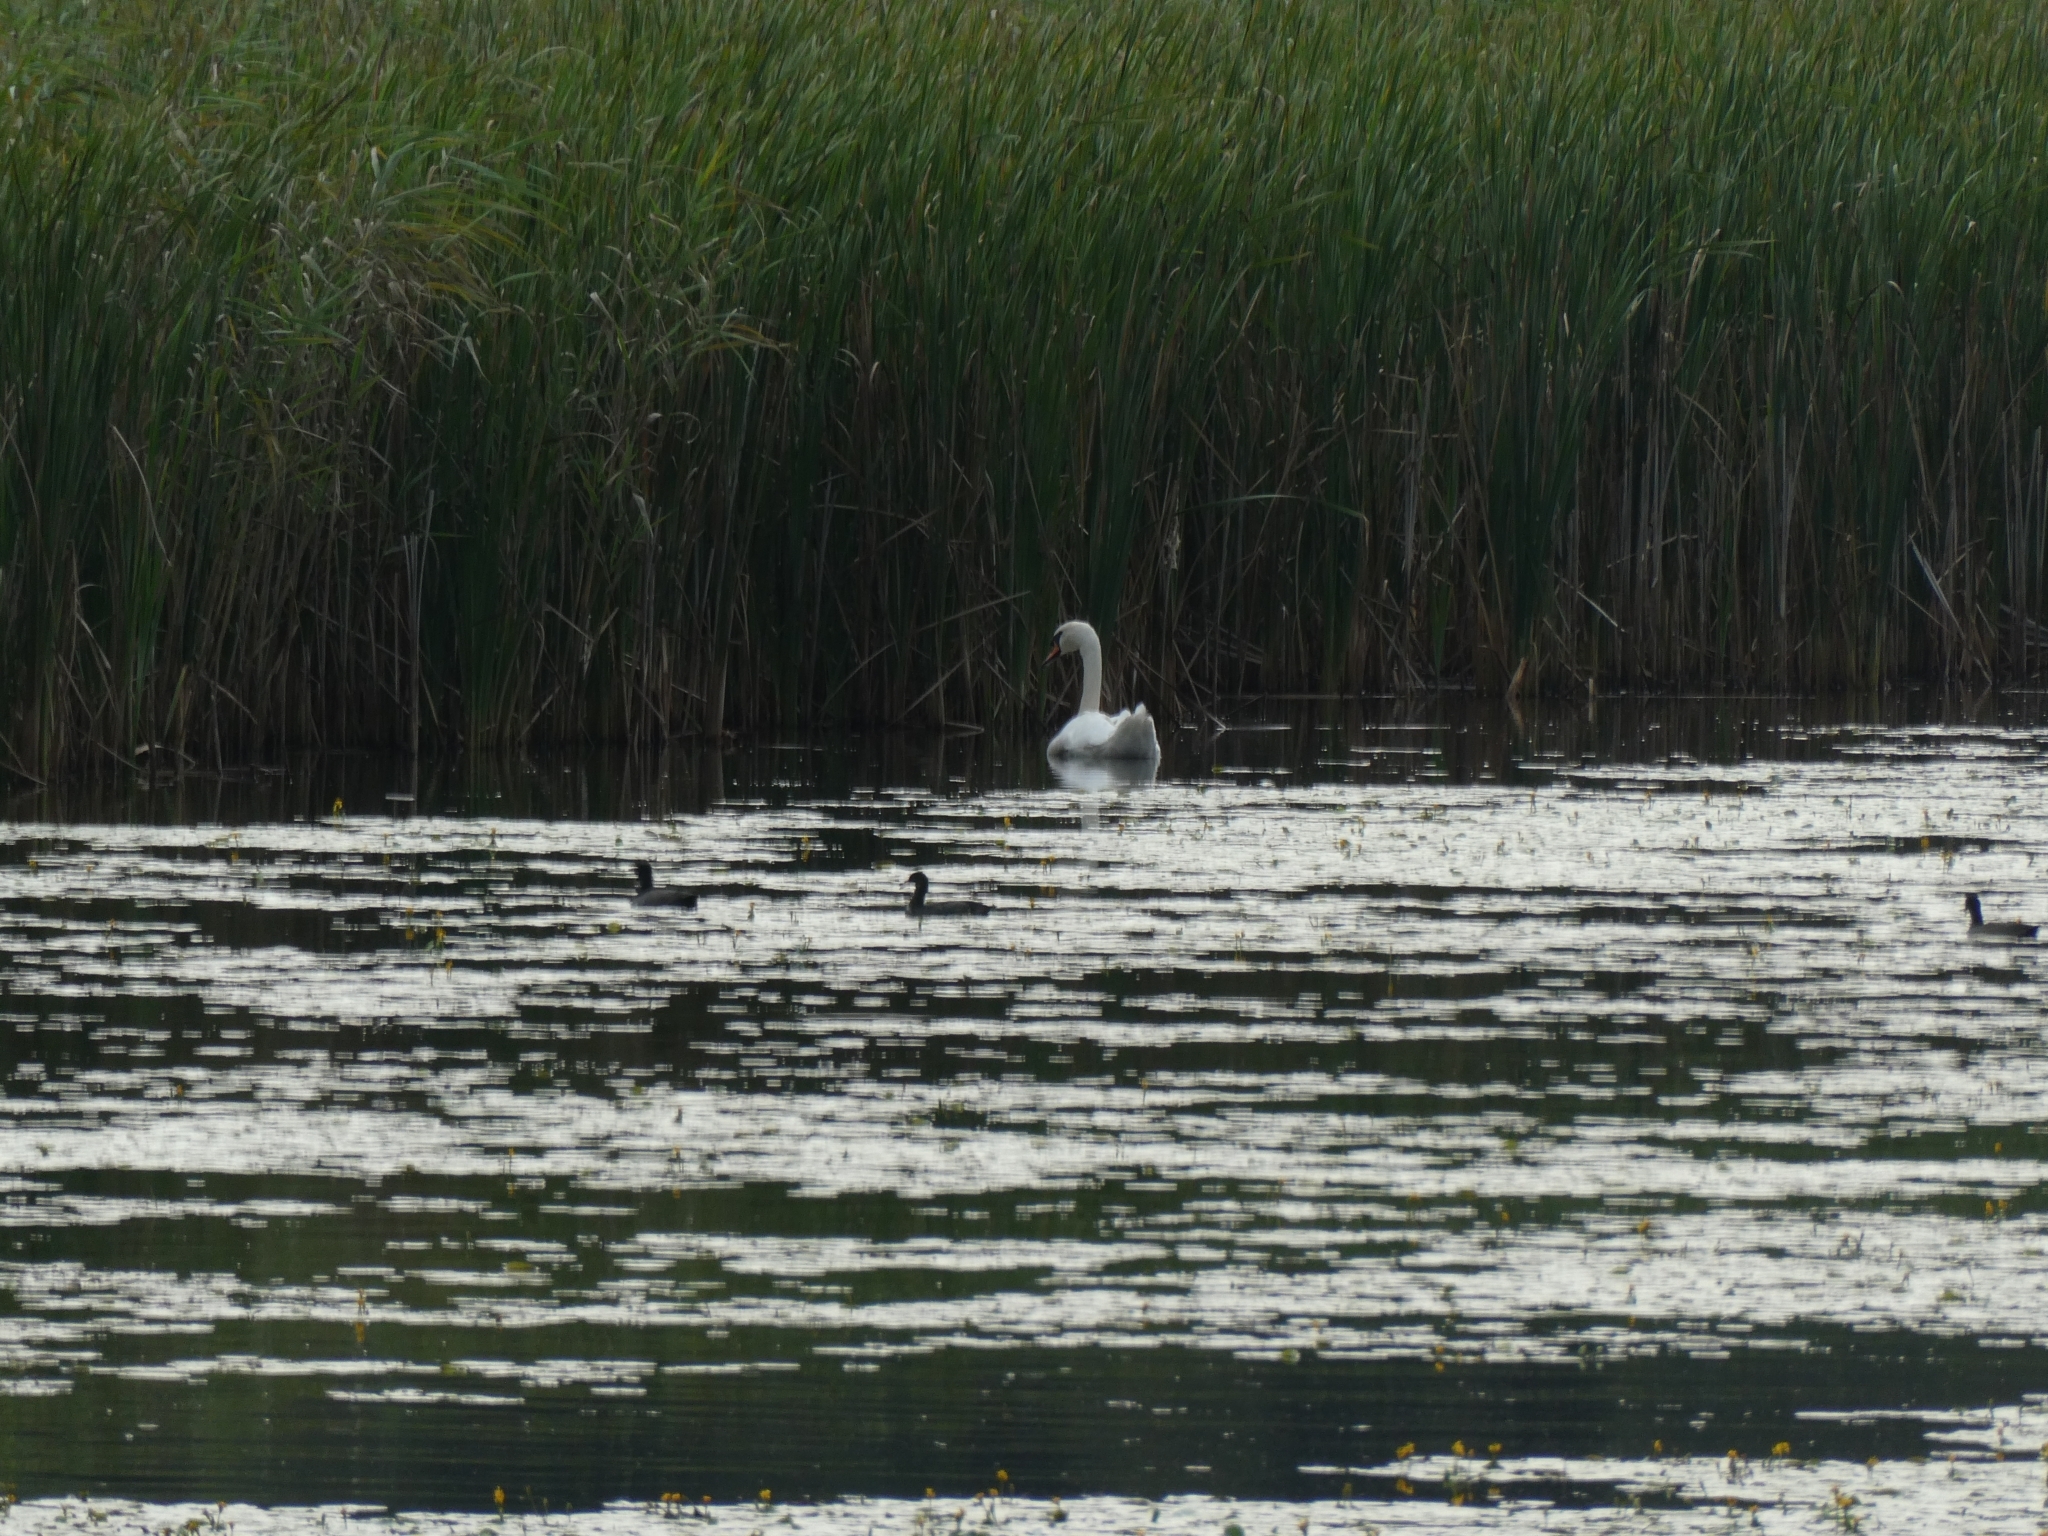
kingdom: Animalia
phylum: Chordata
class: Aves
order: Anseriformes
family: Anatidae
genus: Cygnus
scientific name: Cygnus olor
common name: Mute swan
